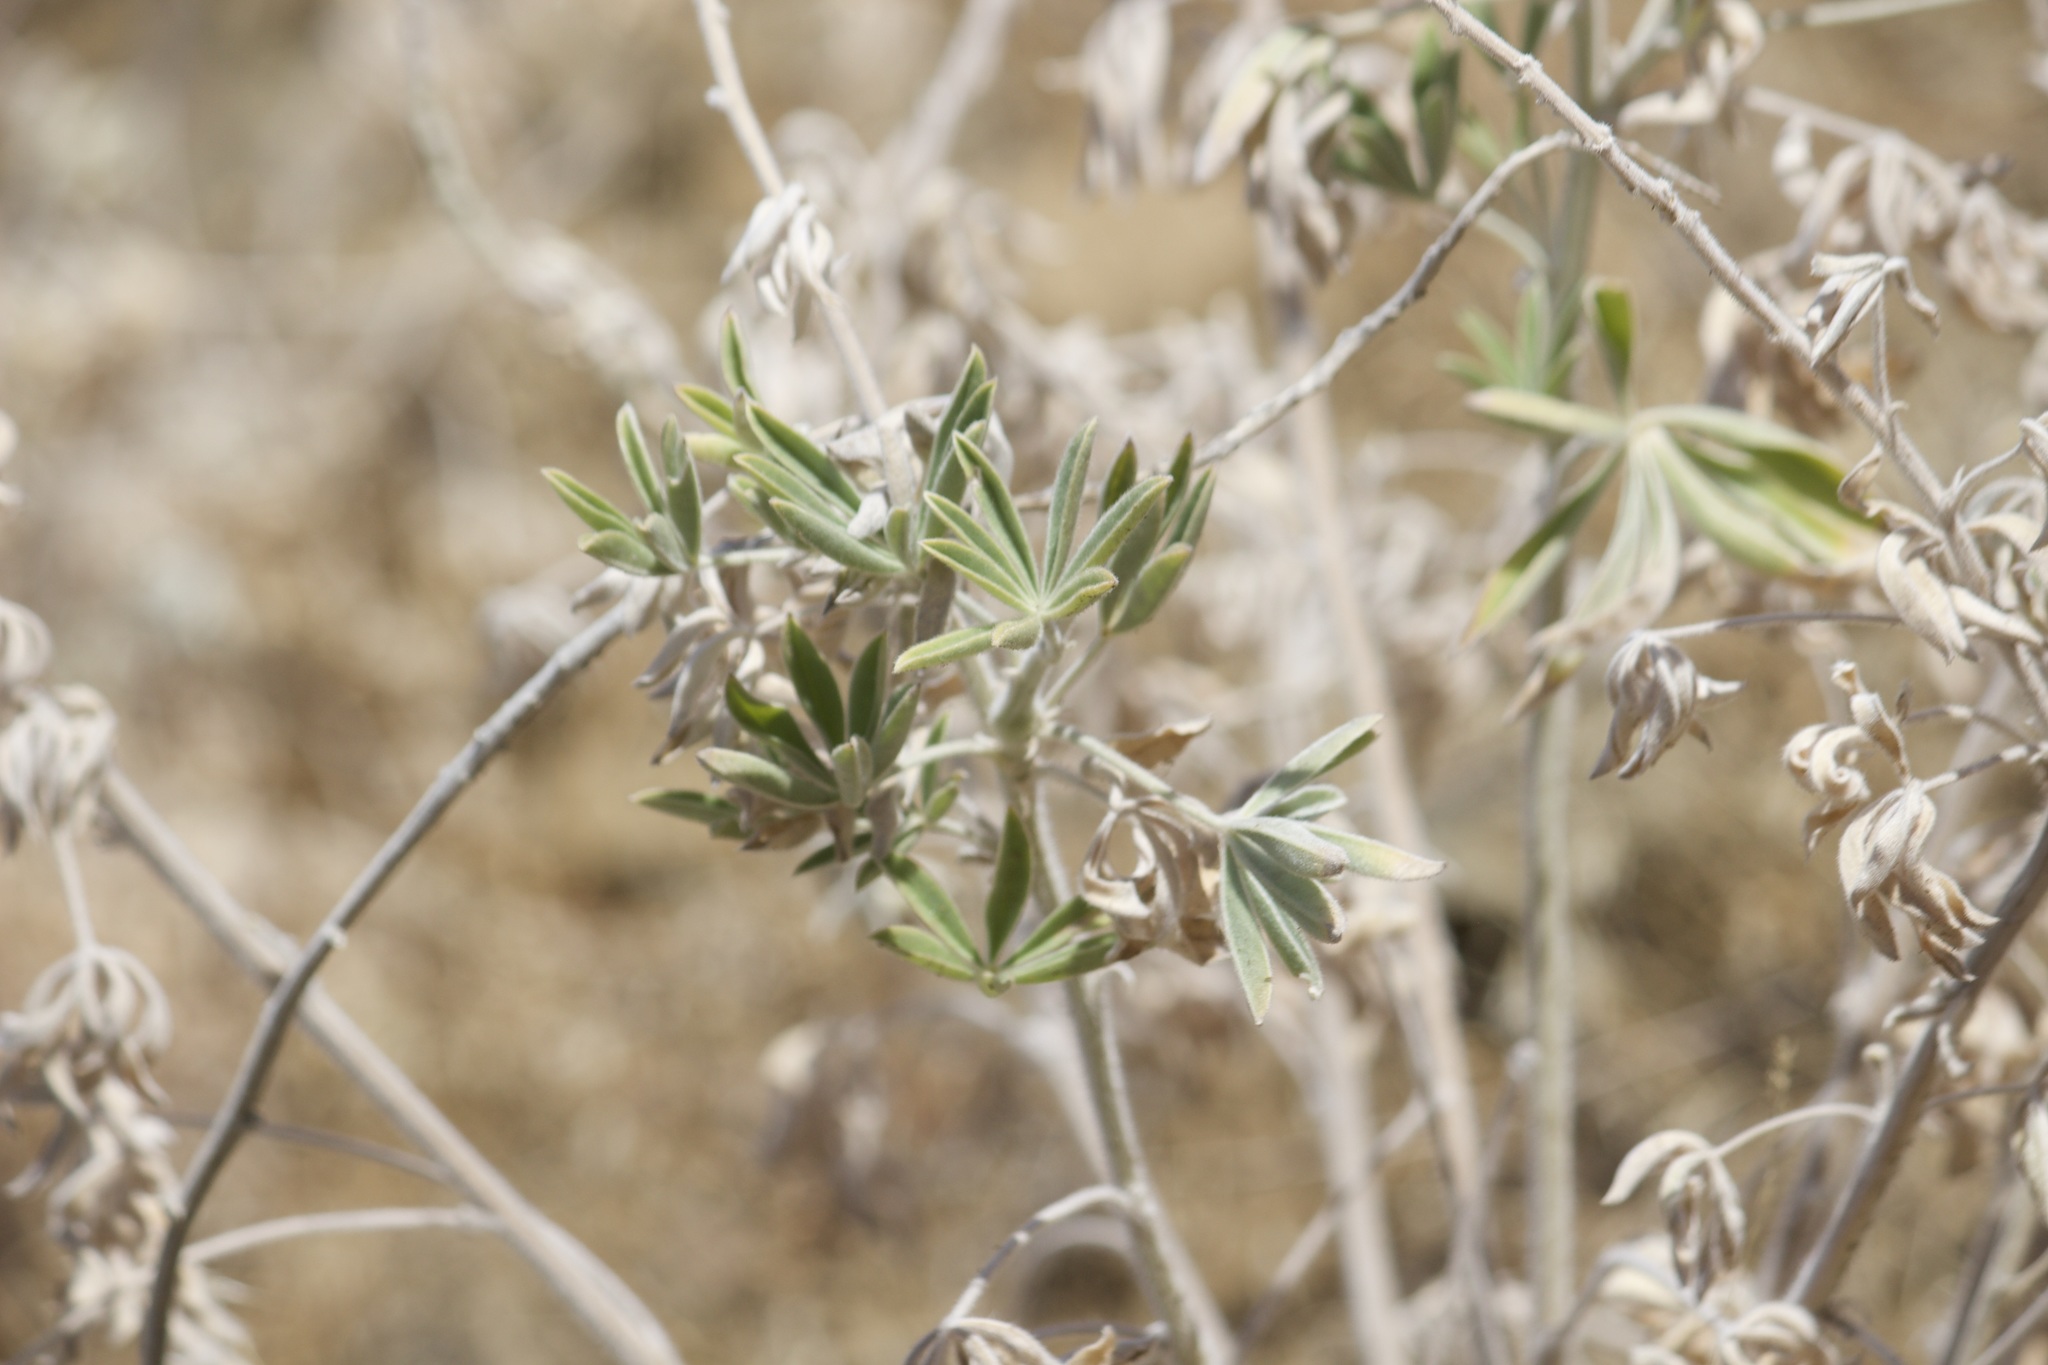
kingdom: Plantae
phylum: Tracheophyta
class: Magnoliopsida
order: Fabales
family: Fabaceae
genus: Lupinus
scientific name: Lupinus albifrons
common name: Foothill lupine
